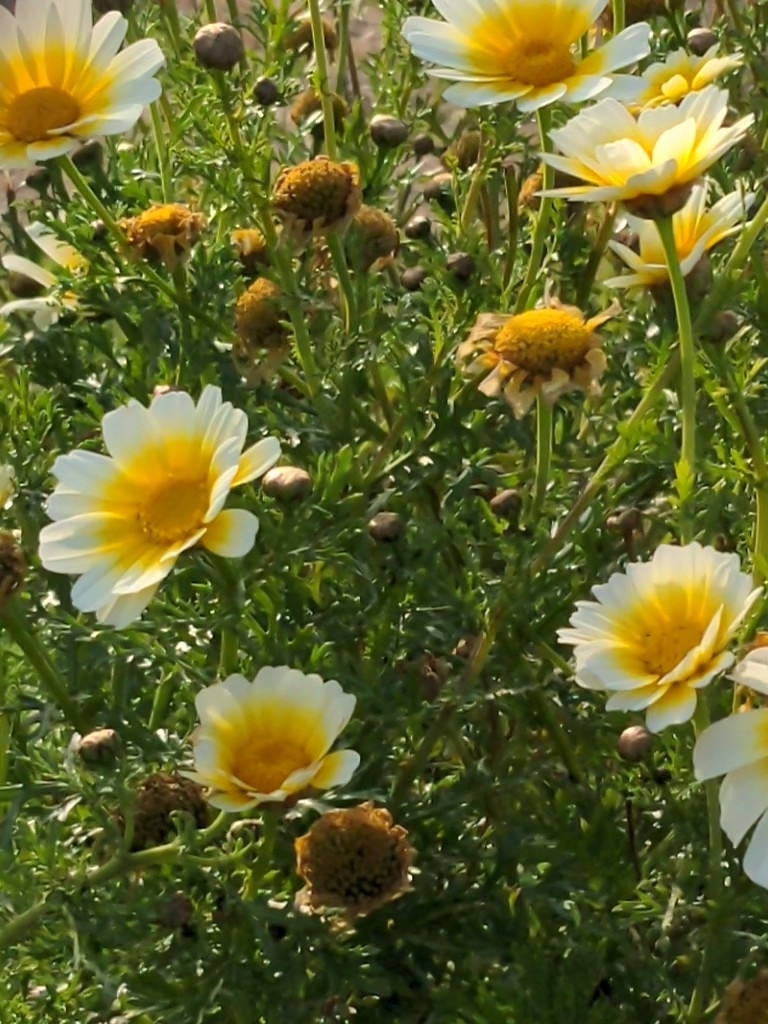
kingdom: Plantae
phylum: Tracheophyta
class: Magnoliopsida
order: Asterales
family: Asteraceae
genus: Glebionis
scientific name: Glebionis coronaria
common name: Crowndaisy
